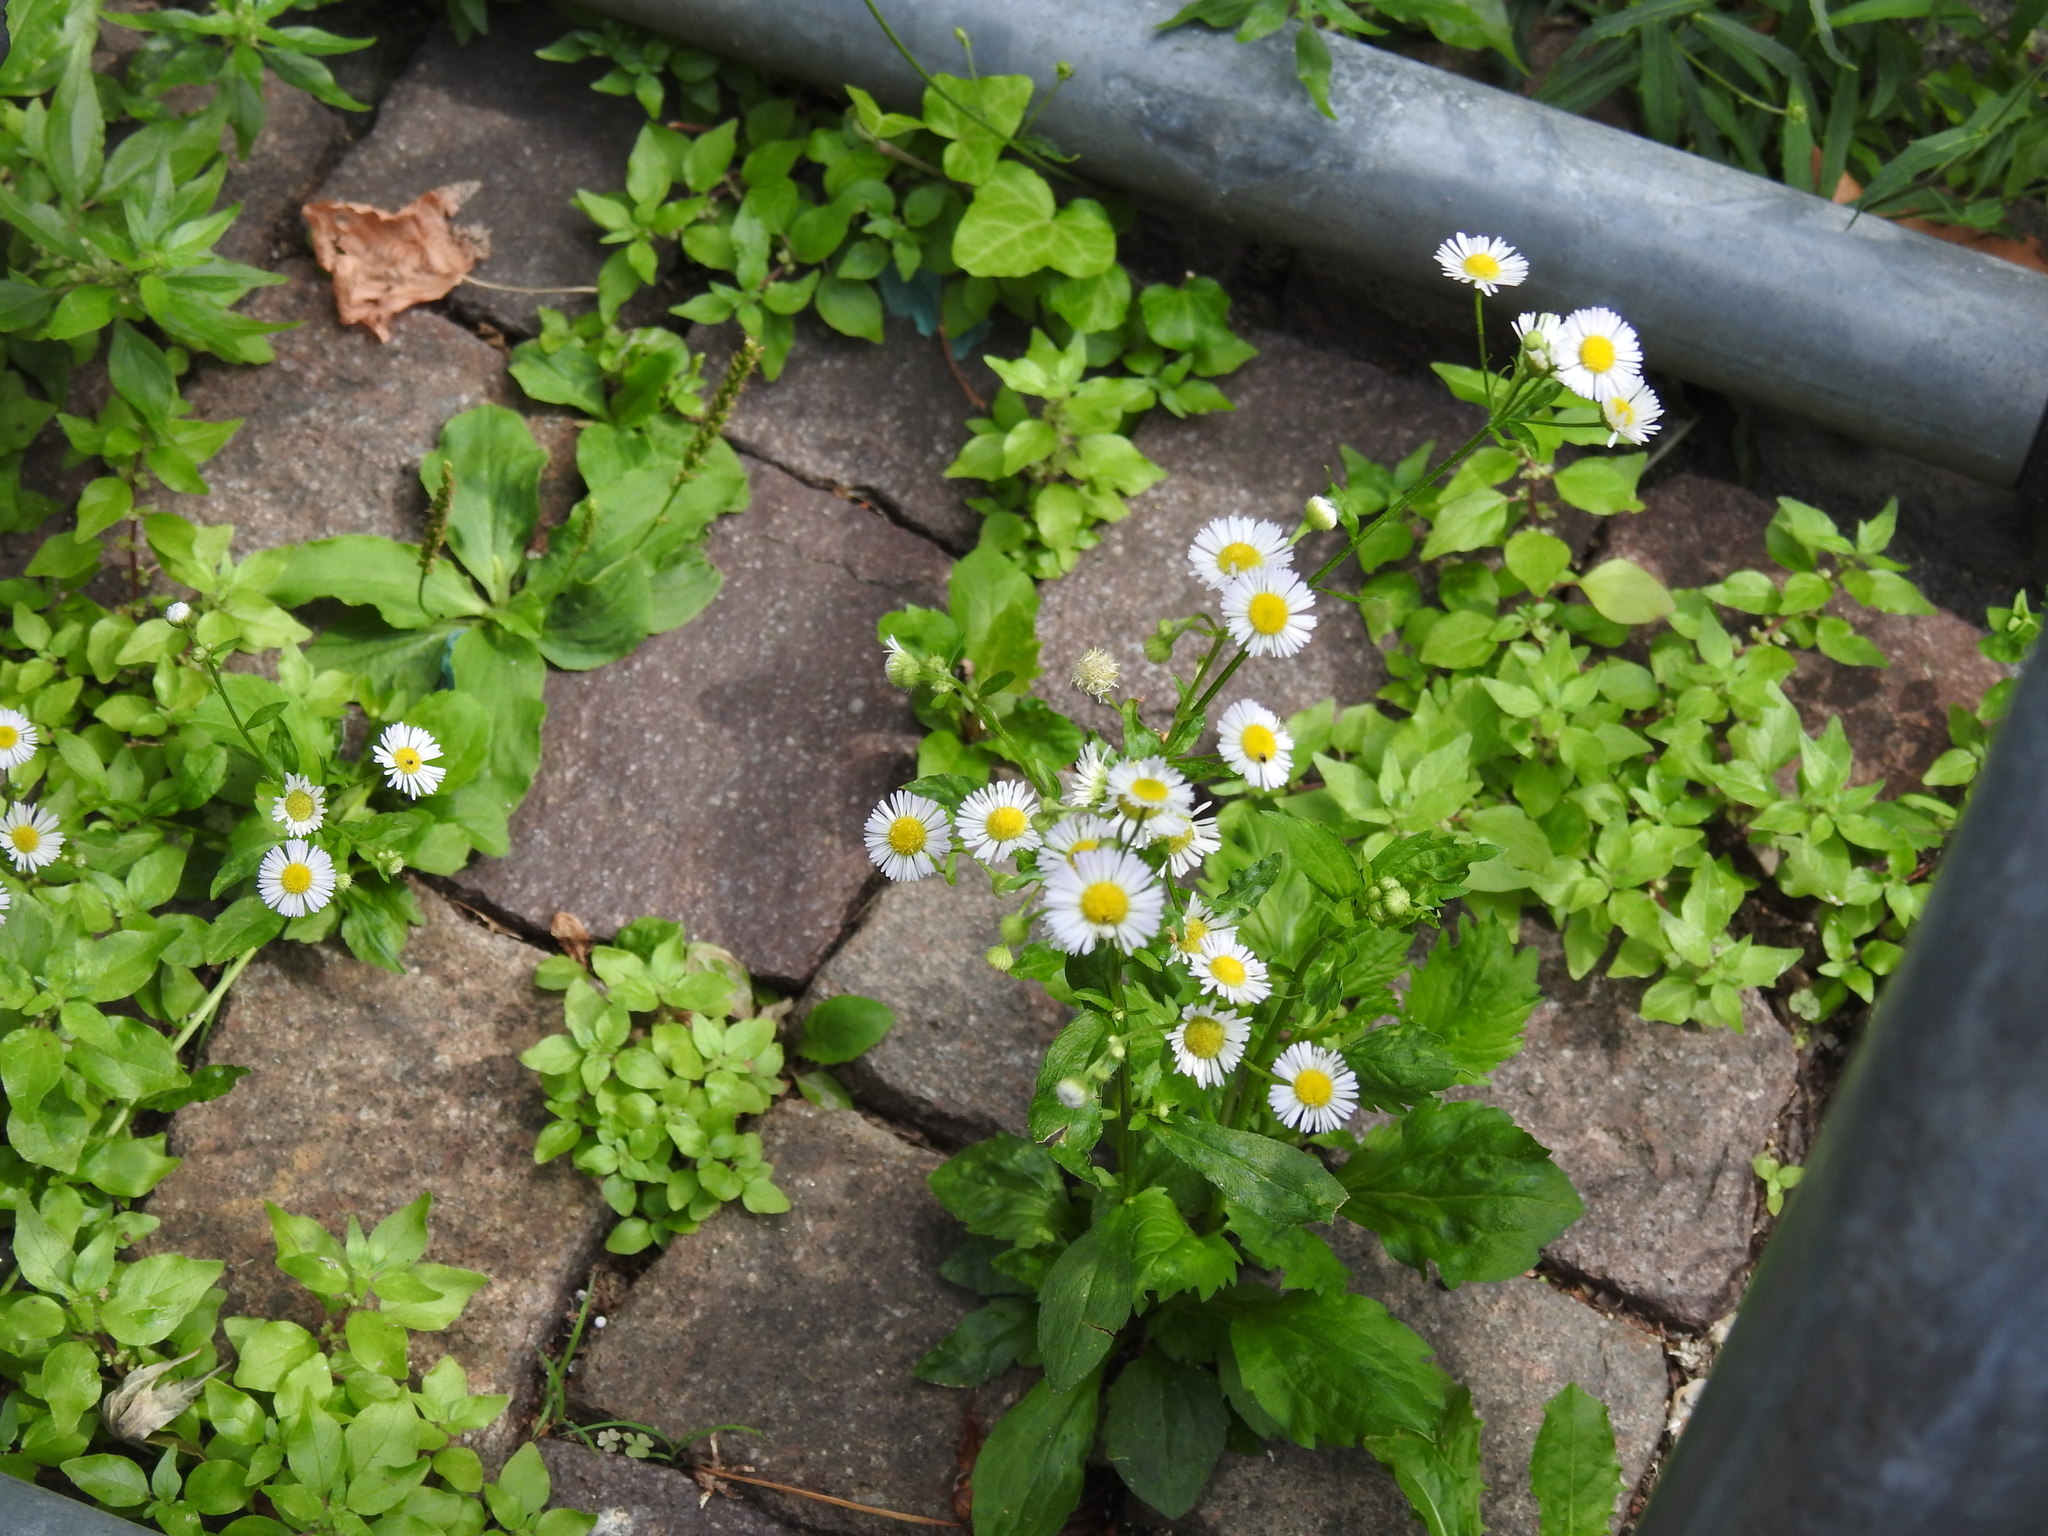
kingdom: Plantae
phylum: Tracheophyta
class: Magnoliopsida
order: Asterales
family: Asteraceae
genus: Erigeron
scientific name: Erigeron annuus
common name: Tall fleabane
